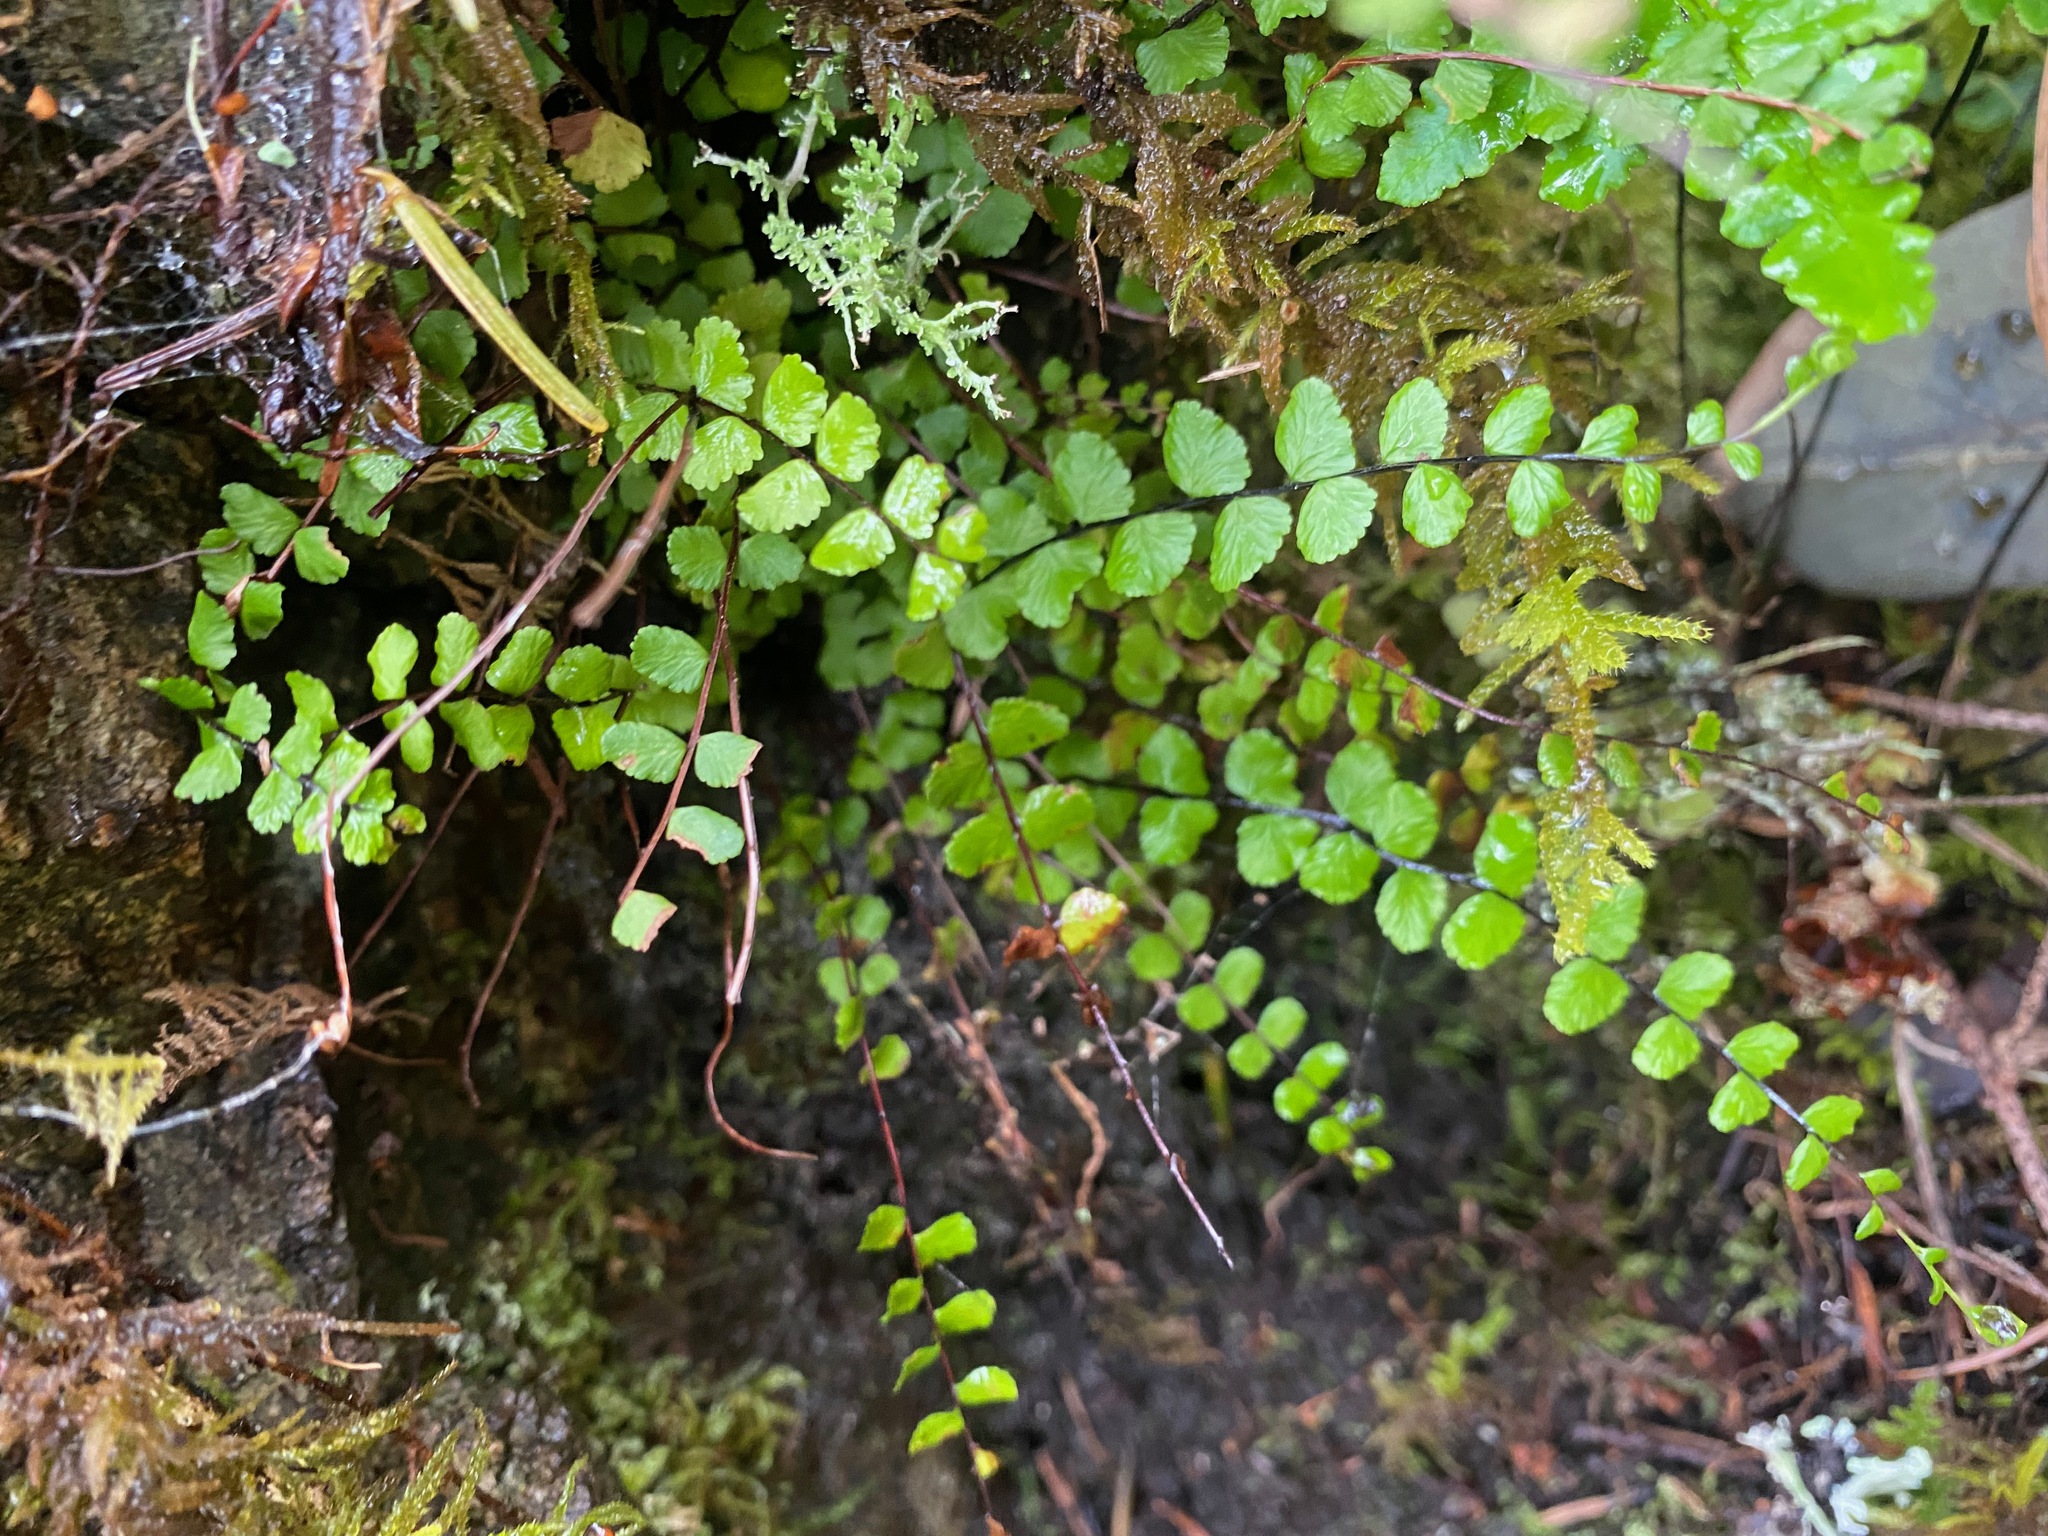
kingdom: Plantae
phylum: Tracheophyta
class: Polypodiopsida
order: Polypodiales
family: Aspleniaceae
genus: Asplenium
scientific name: Asplenium trichomanes
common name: Maidenhair spleenwort
